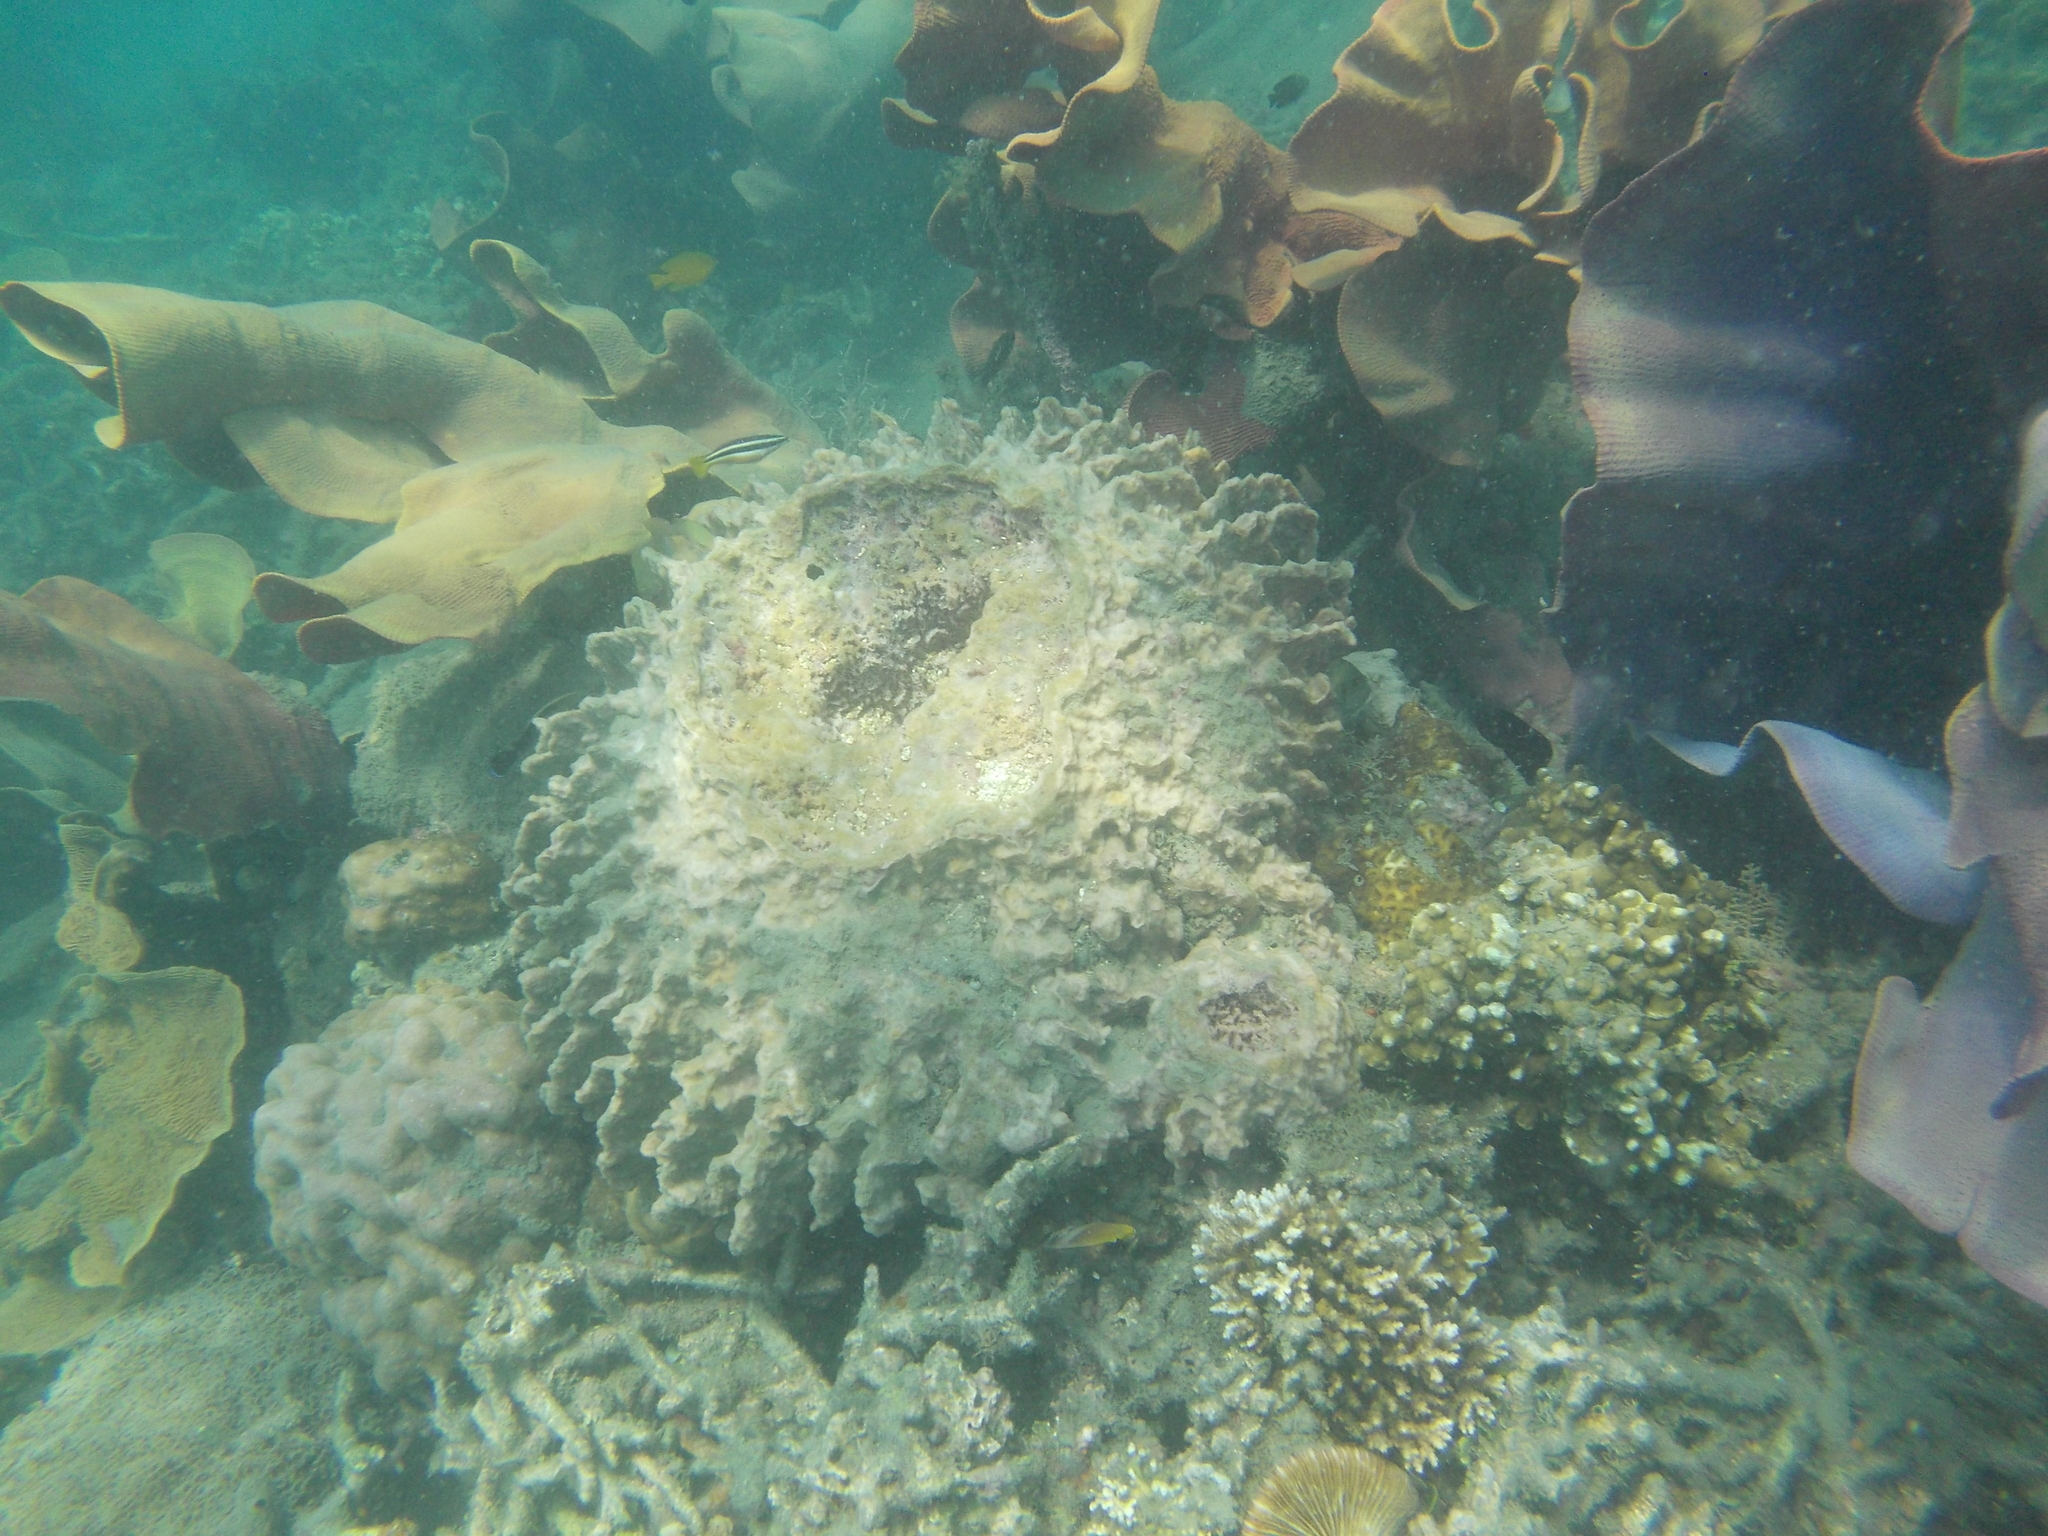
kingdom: Animalia
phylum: Porifera
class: Demospongiae
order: Haplosclerida
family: Petrosiidae
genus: Xestospongia
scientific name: Xestospongia testudinaria
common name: Barrel sponge
